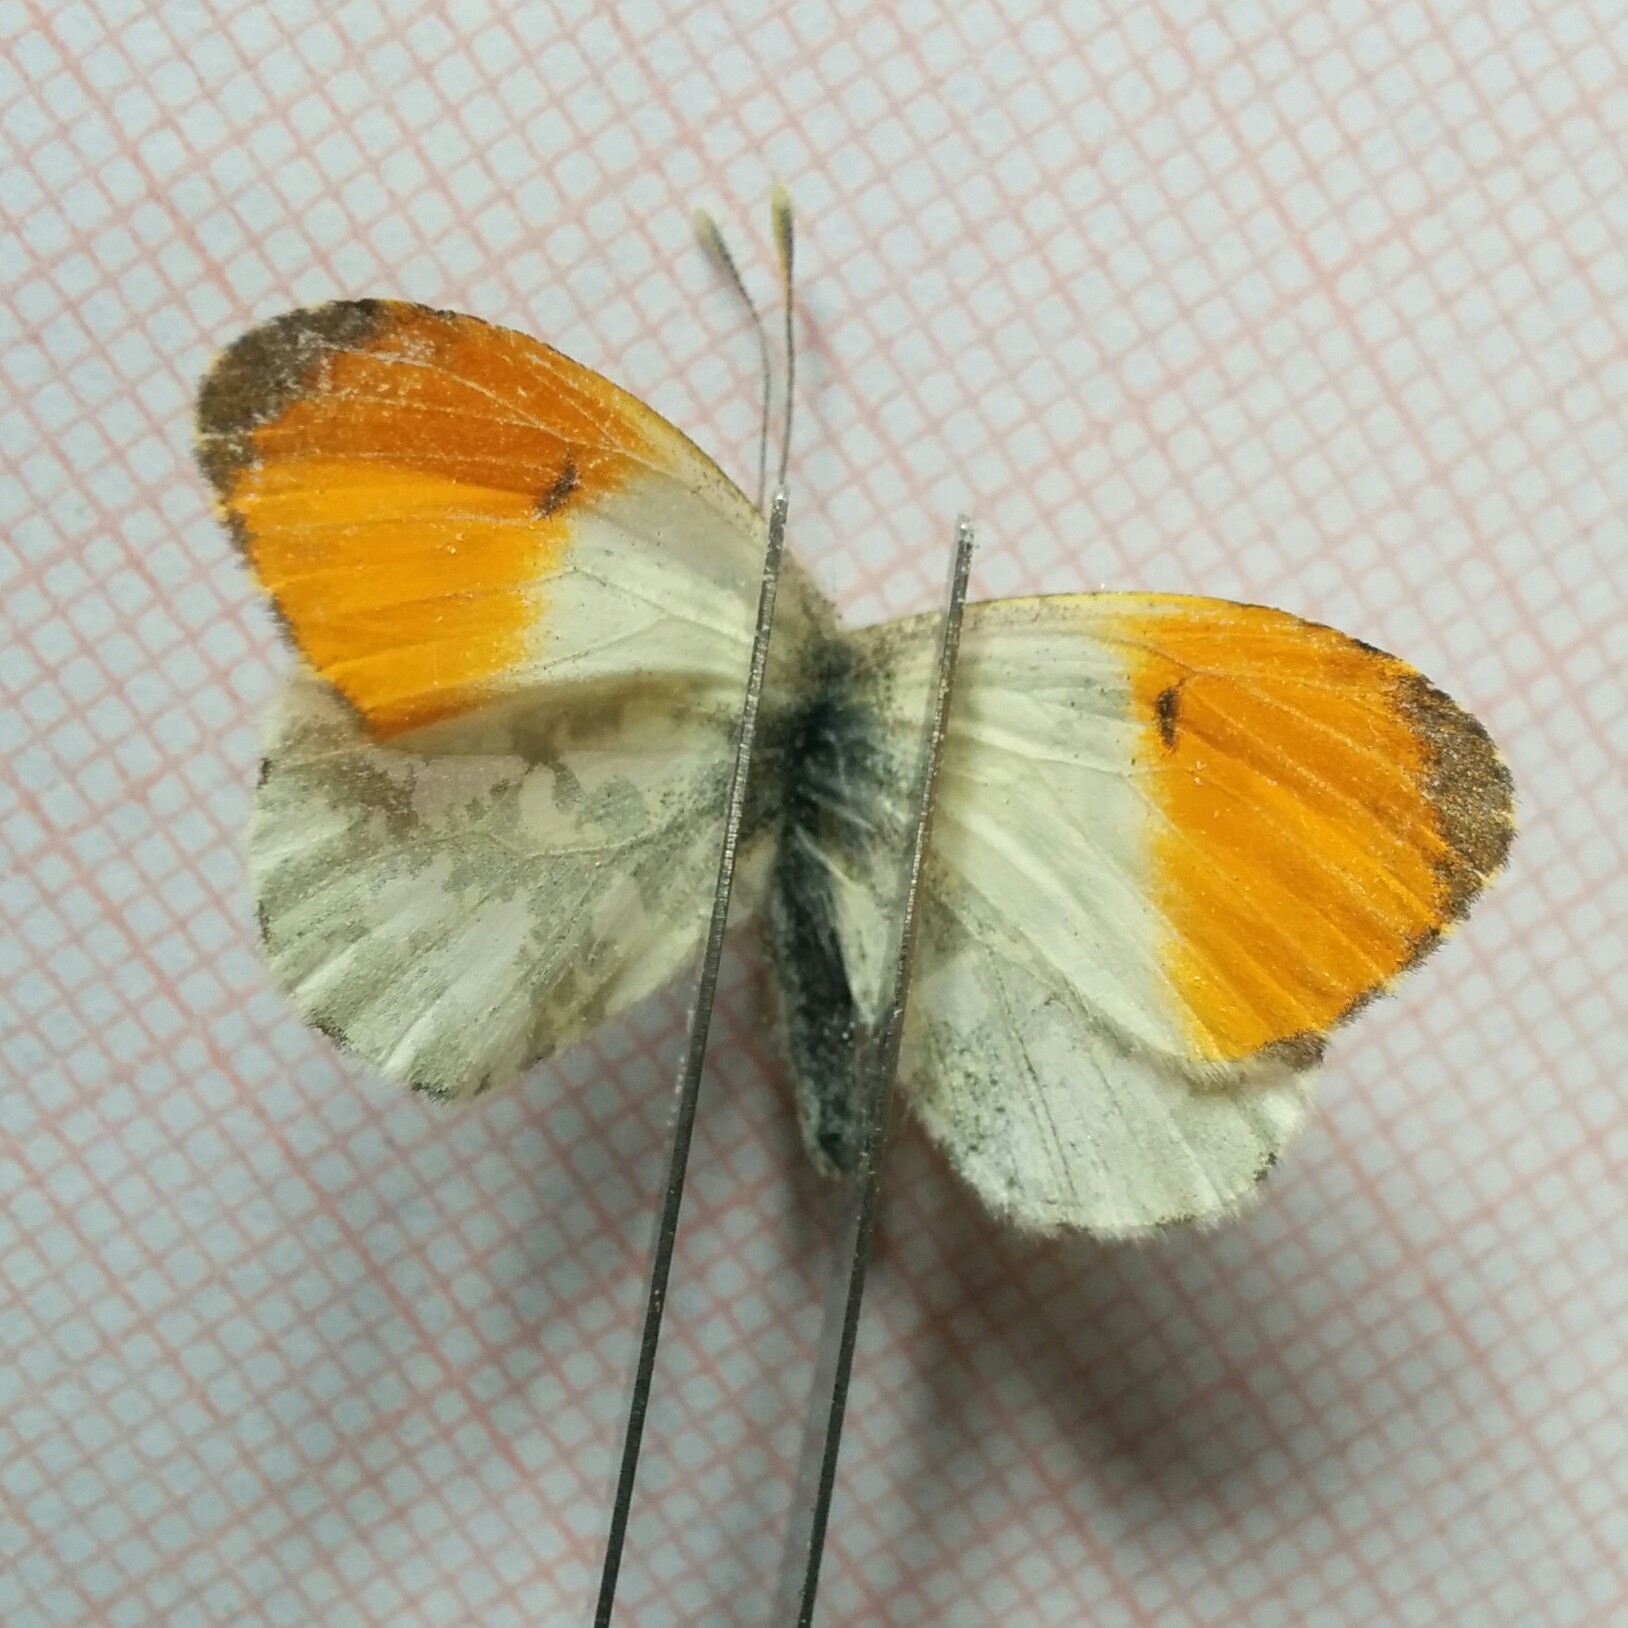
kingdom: Animalia
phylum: Arthropoda
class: Insecta
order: Lepidoptera
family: Pieridae
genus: Anthocharis
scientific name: Anthocharis cardamines
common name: Orange-tip
